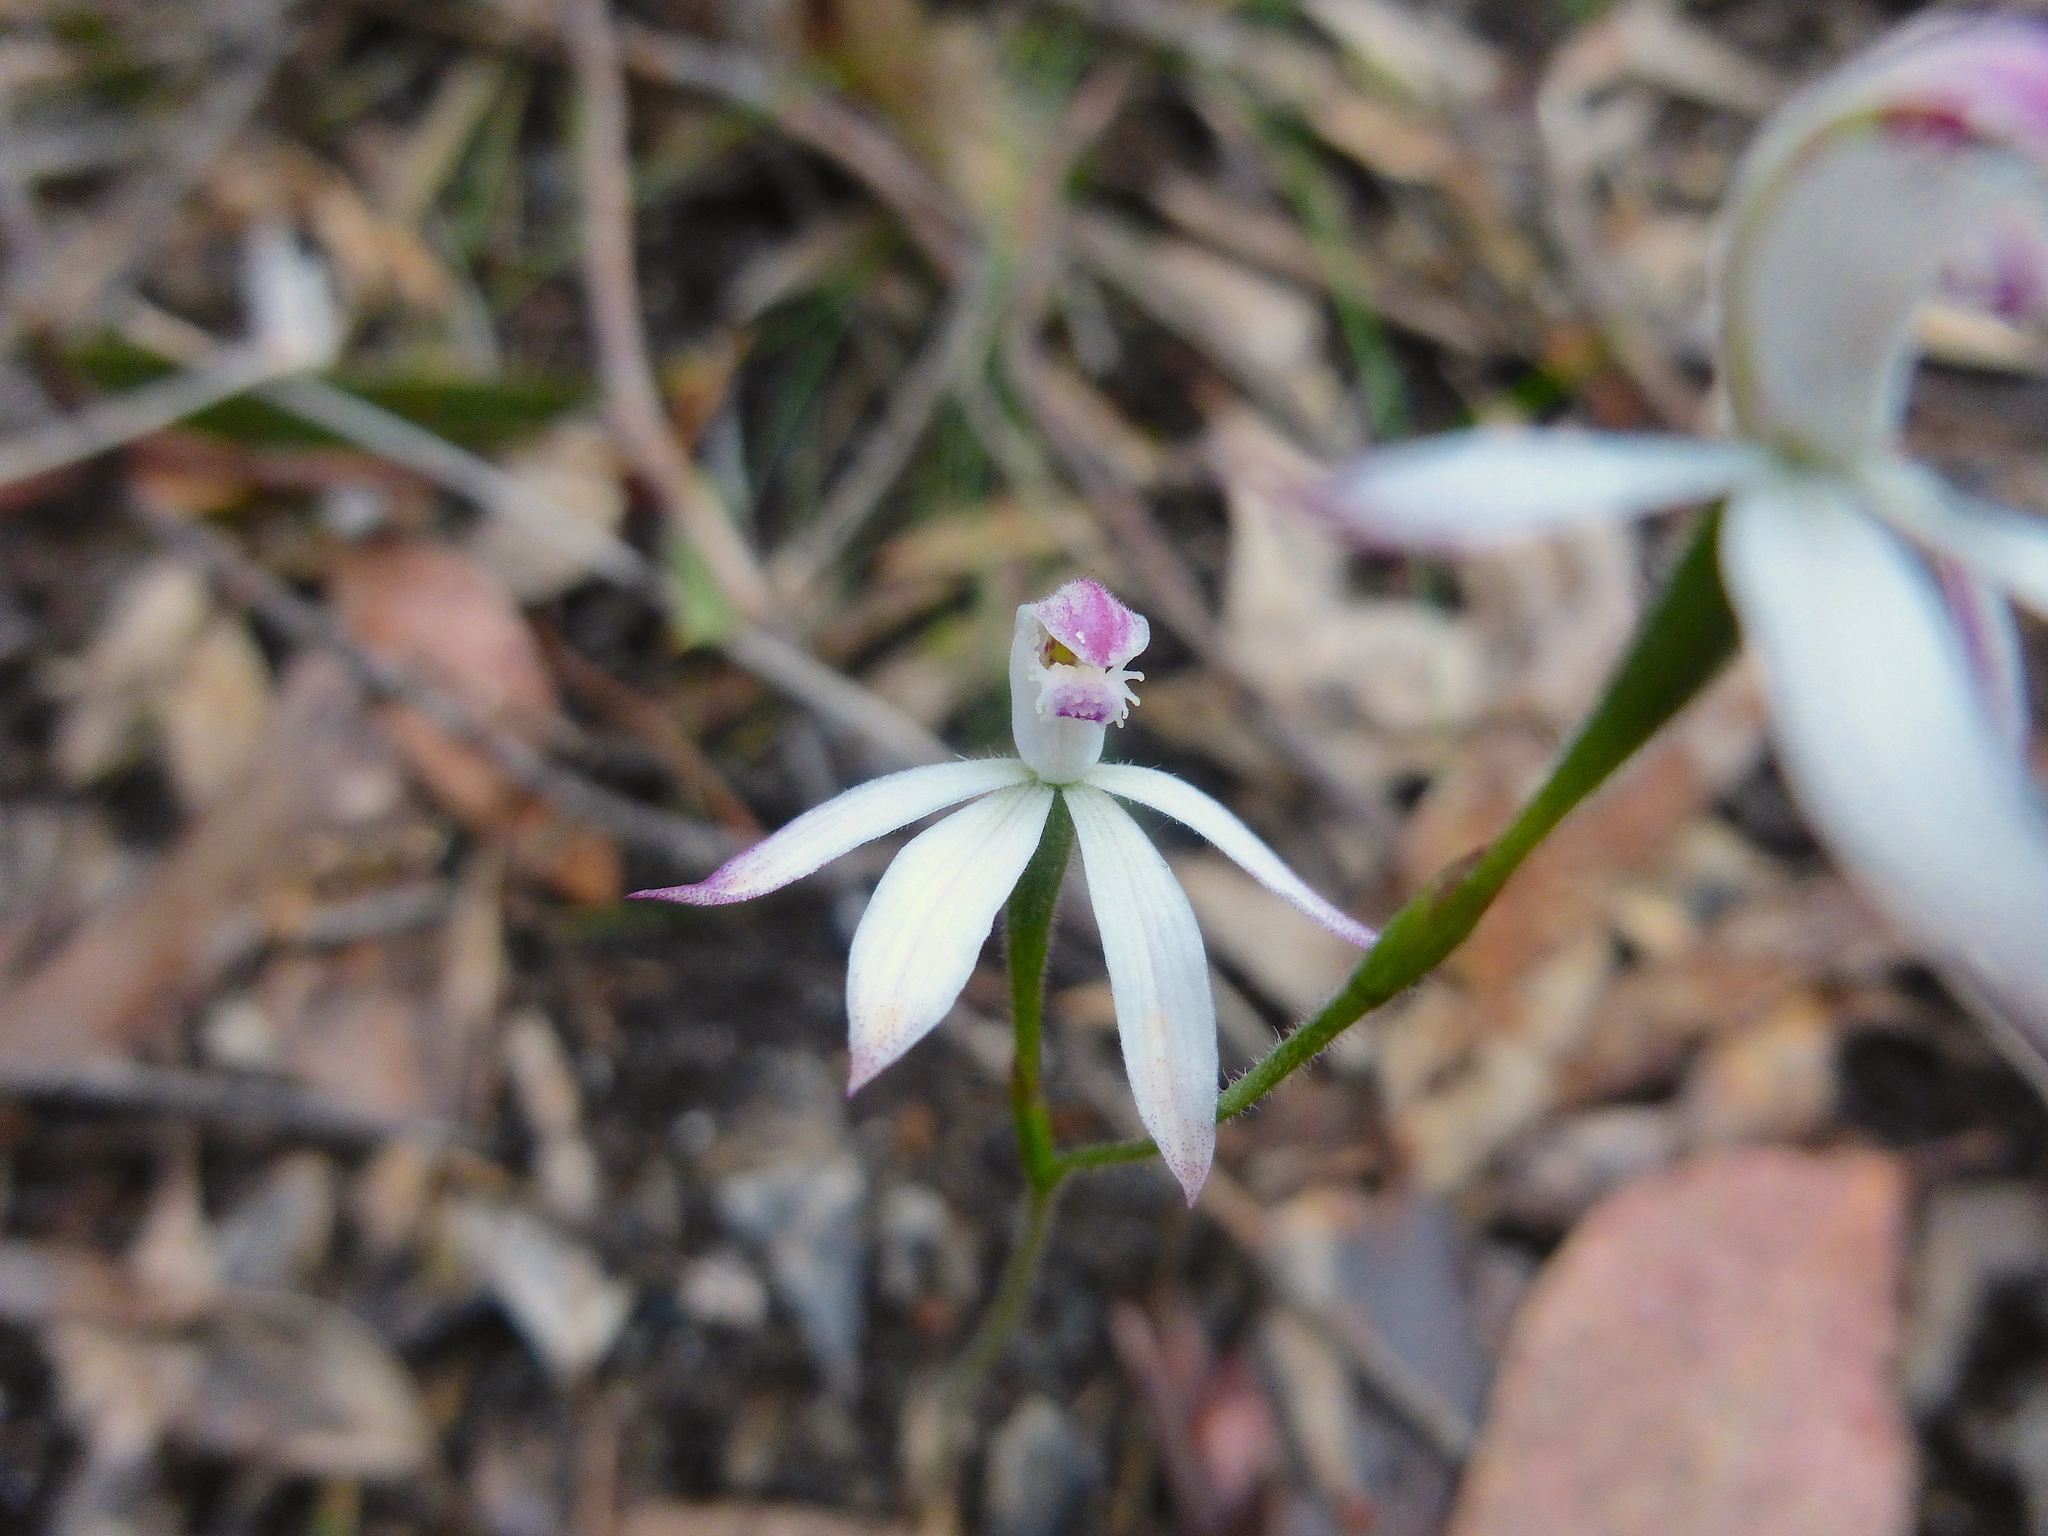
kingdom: Plantae
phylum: Tracheophyta
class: Liliopsida
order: Asparagales
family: Orchidaceae
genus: Caladenia
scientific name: Caladenia dimorpha
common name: Spicy caps
